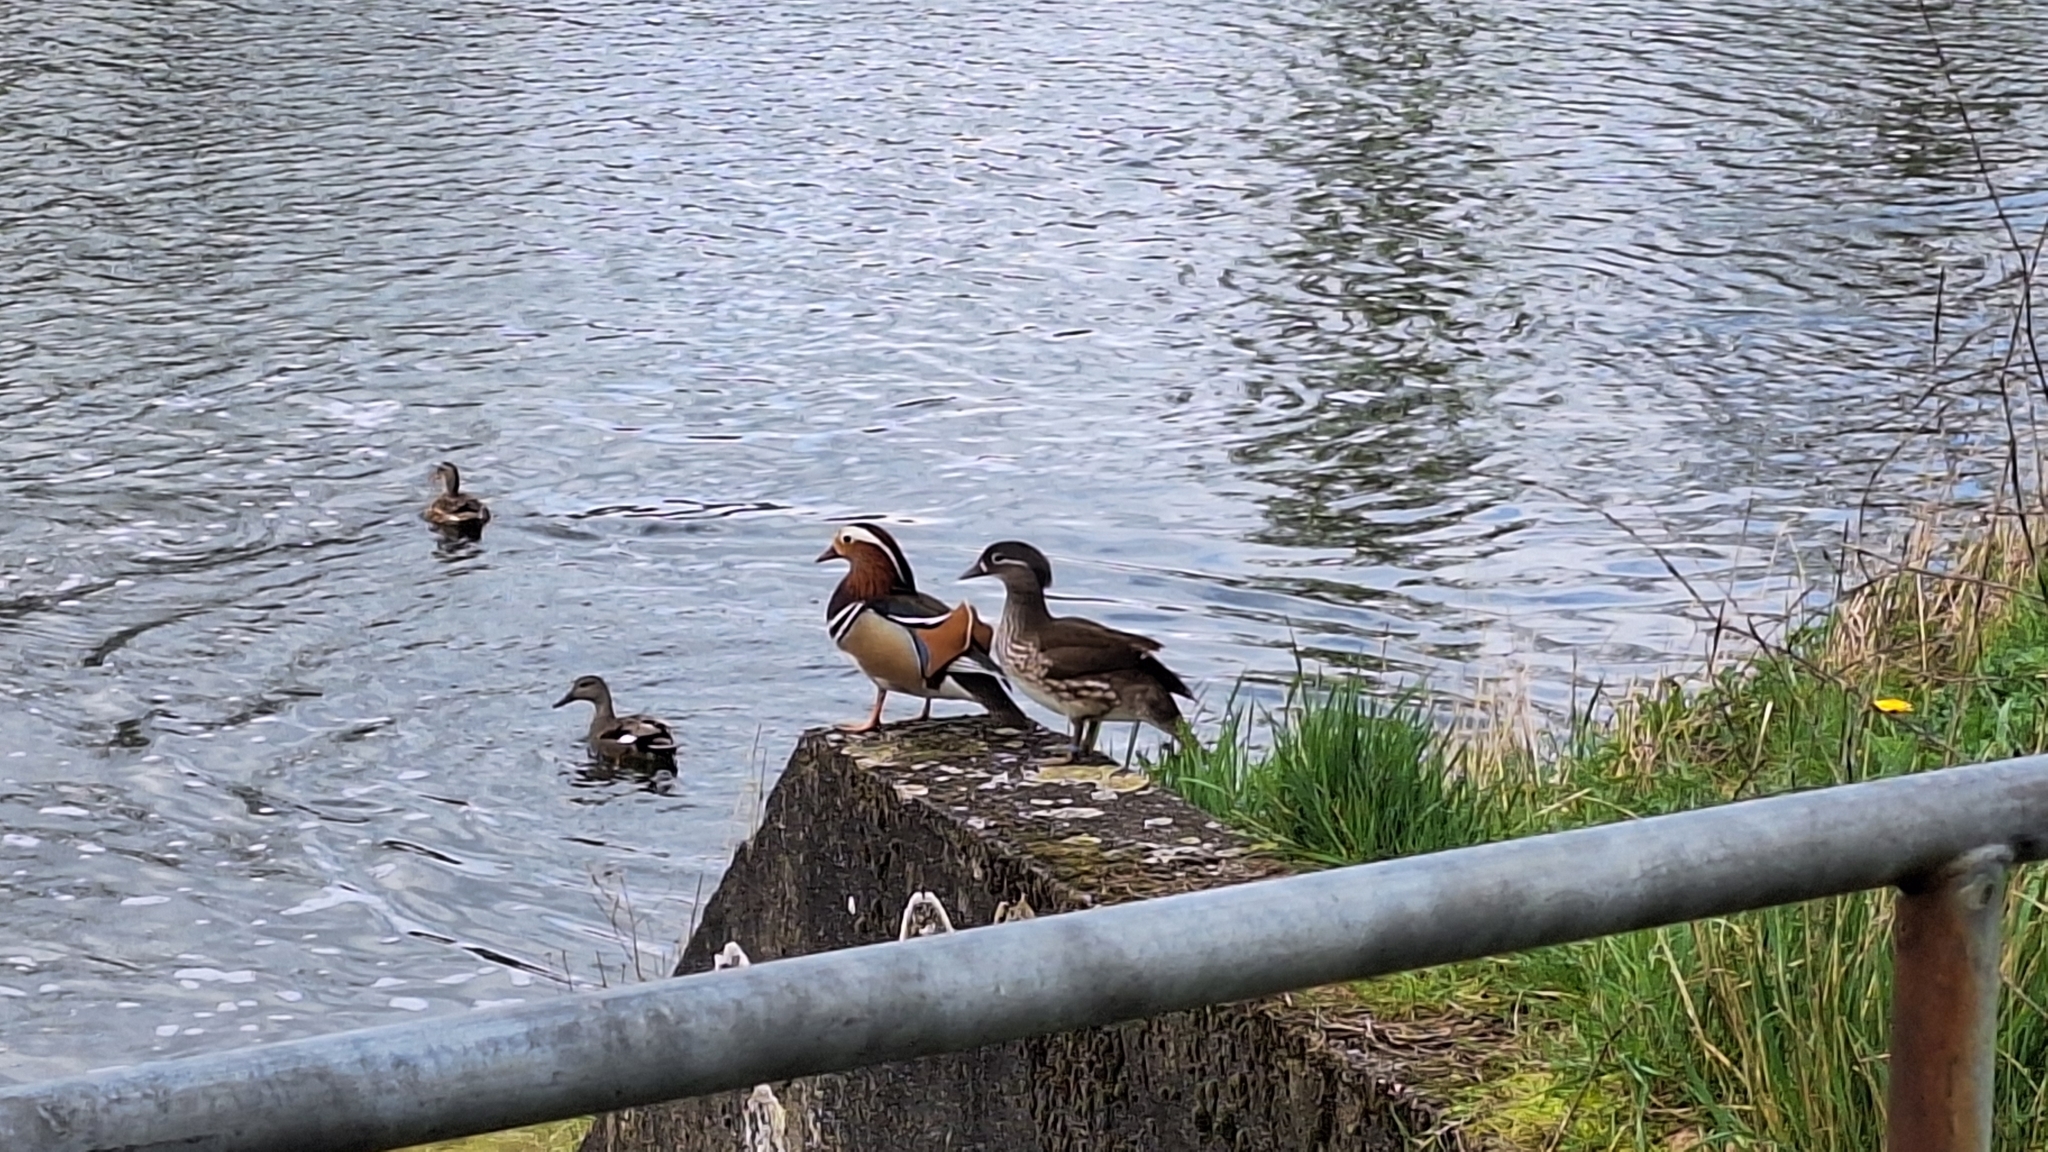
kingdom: Animalia
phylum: Chordata
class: Aves
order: Anseriformes
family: Anatidae
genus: Aix
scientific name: Aix galericulata
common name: Mandarin duck
